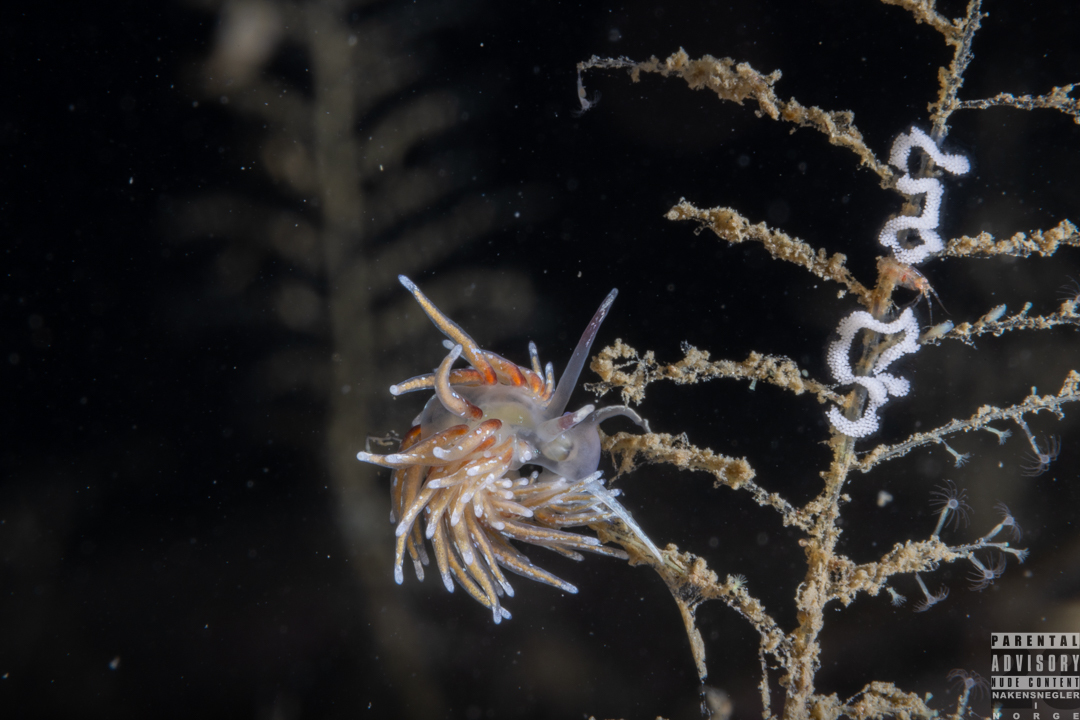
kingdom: Animalia
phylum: Mollusca
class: Gastropoda
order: Nudibranchia
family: Trinchesiidae
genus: Rubramoena
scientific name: Rubramoena rubescens
